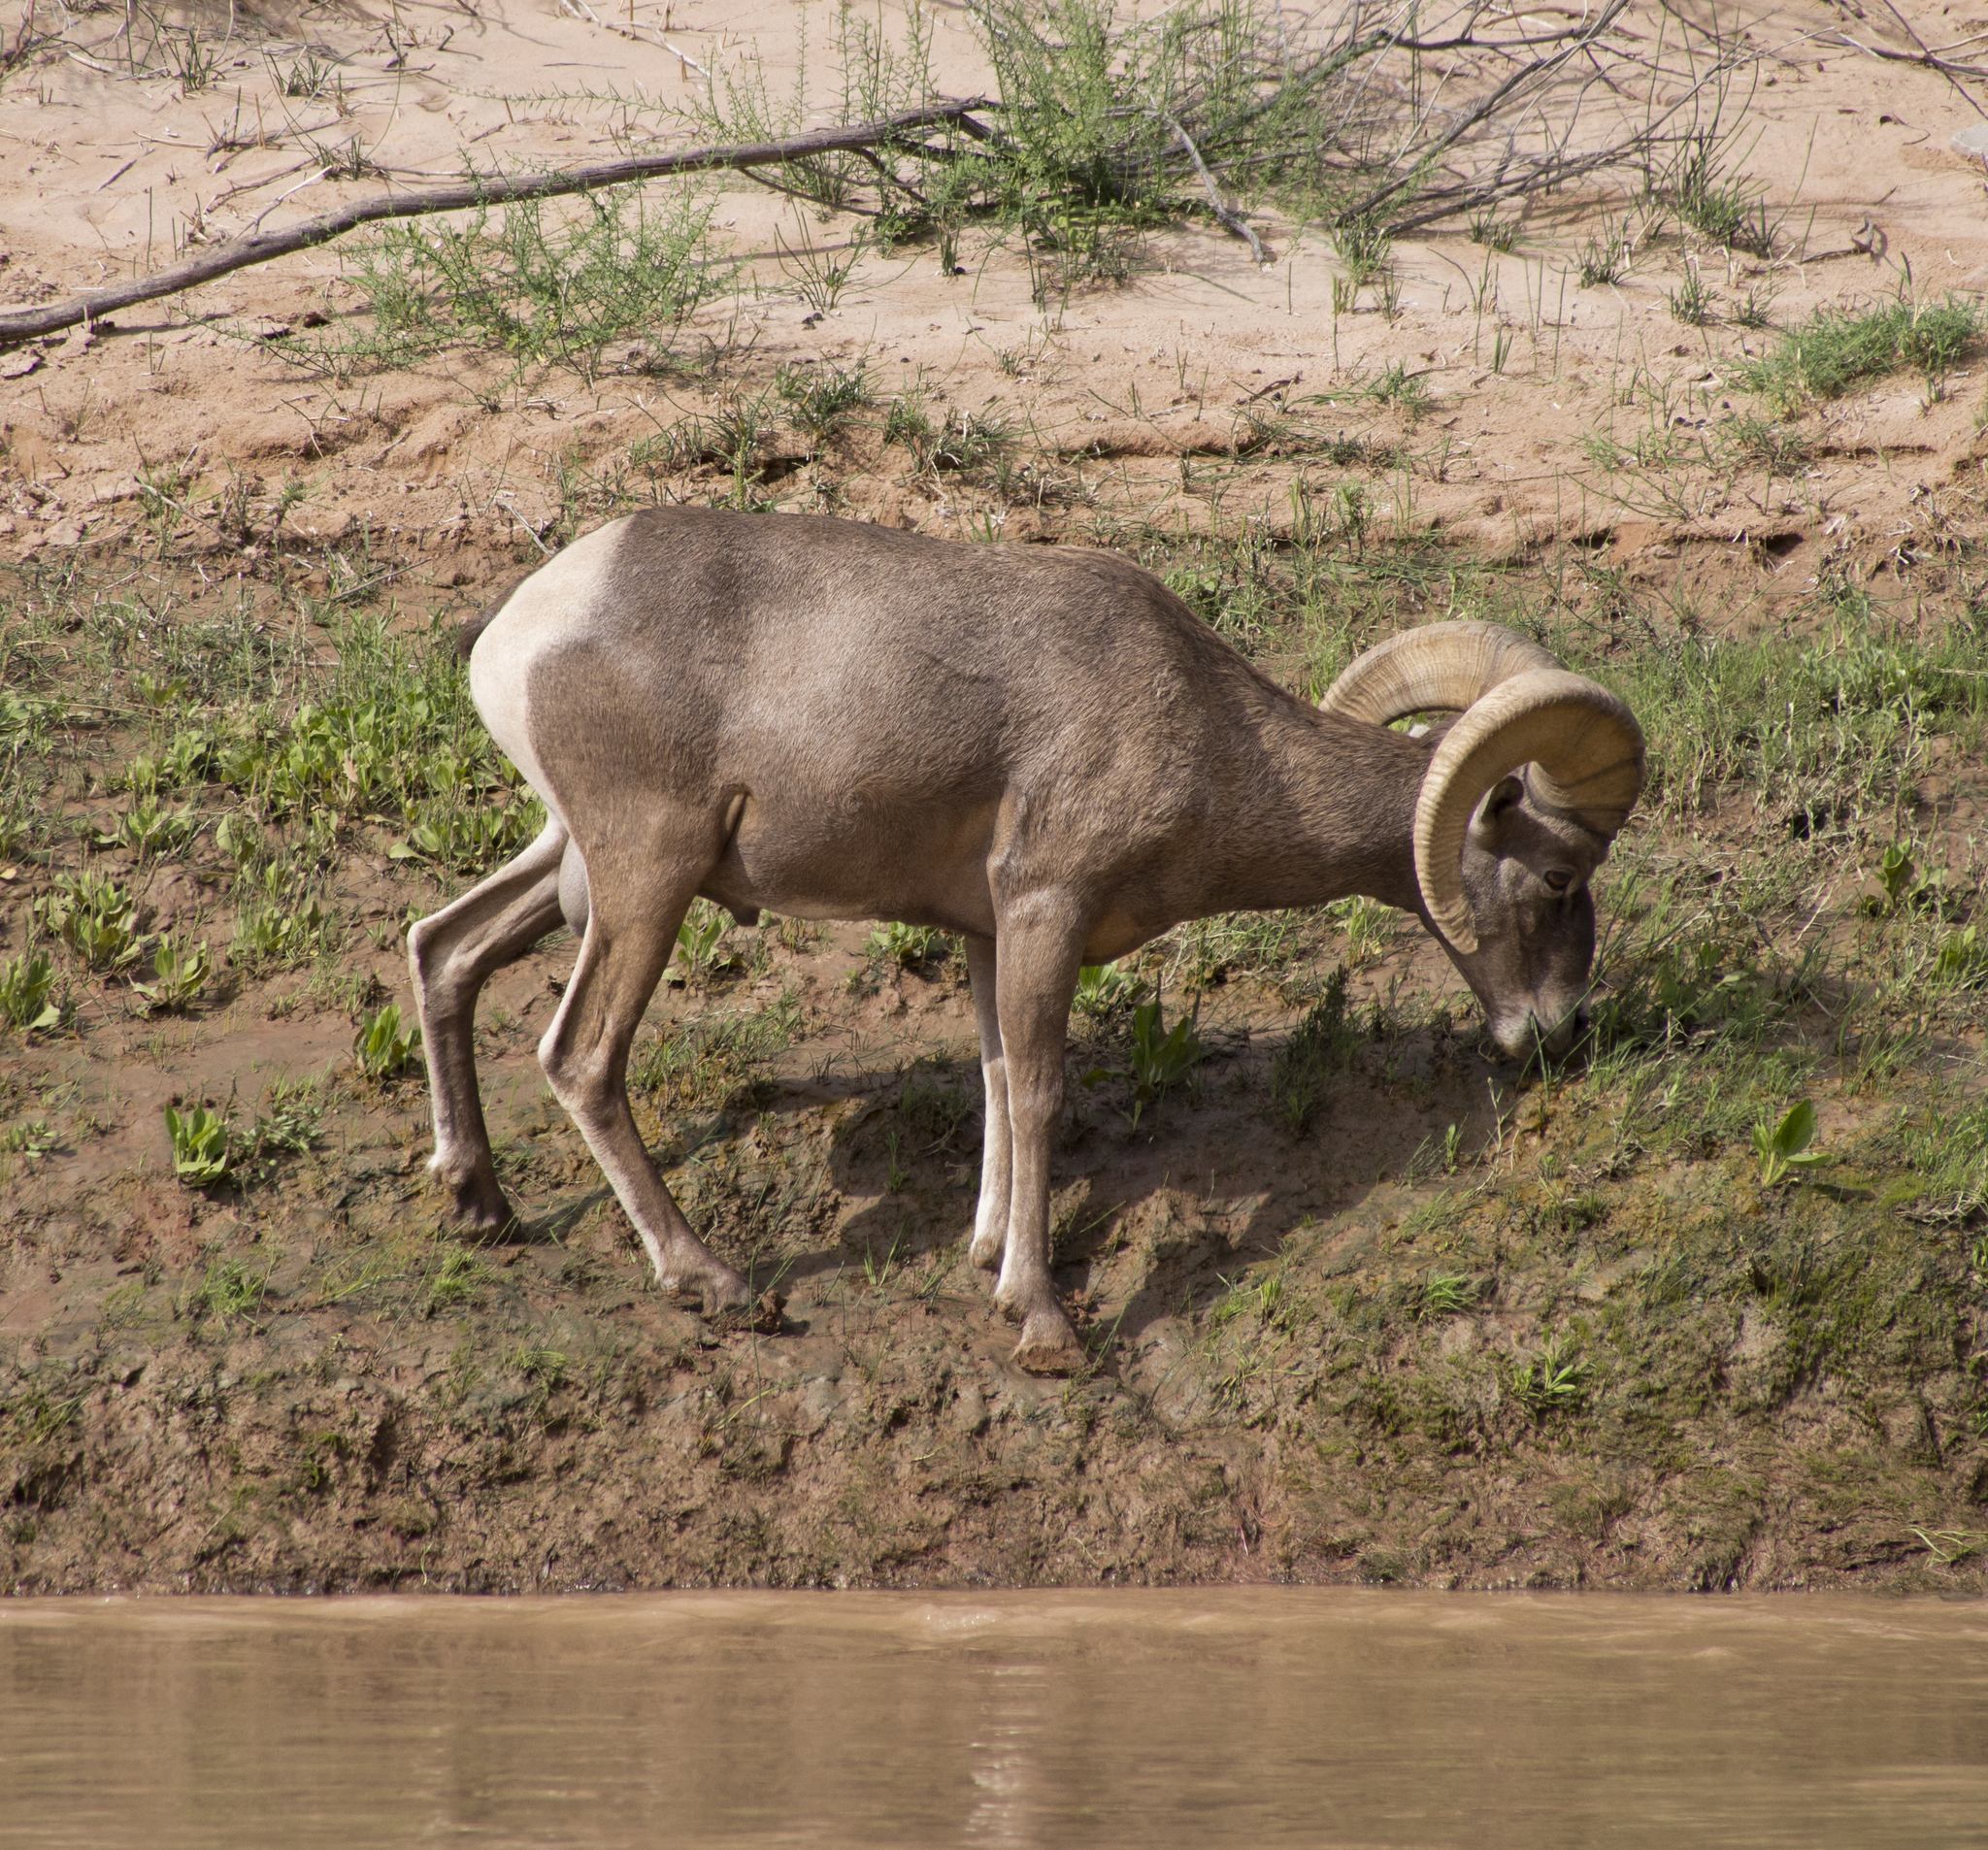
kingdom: Animalia
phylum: Chordata
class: Mammalia
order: Artiodactyla
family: Bovidae
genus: Ovis
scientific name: Ovis canadensis
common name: Bighorn sheep
